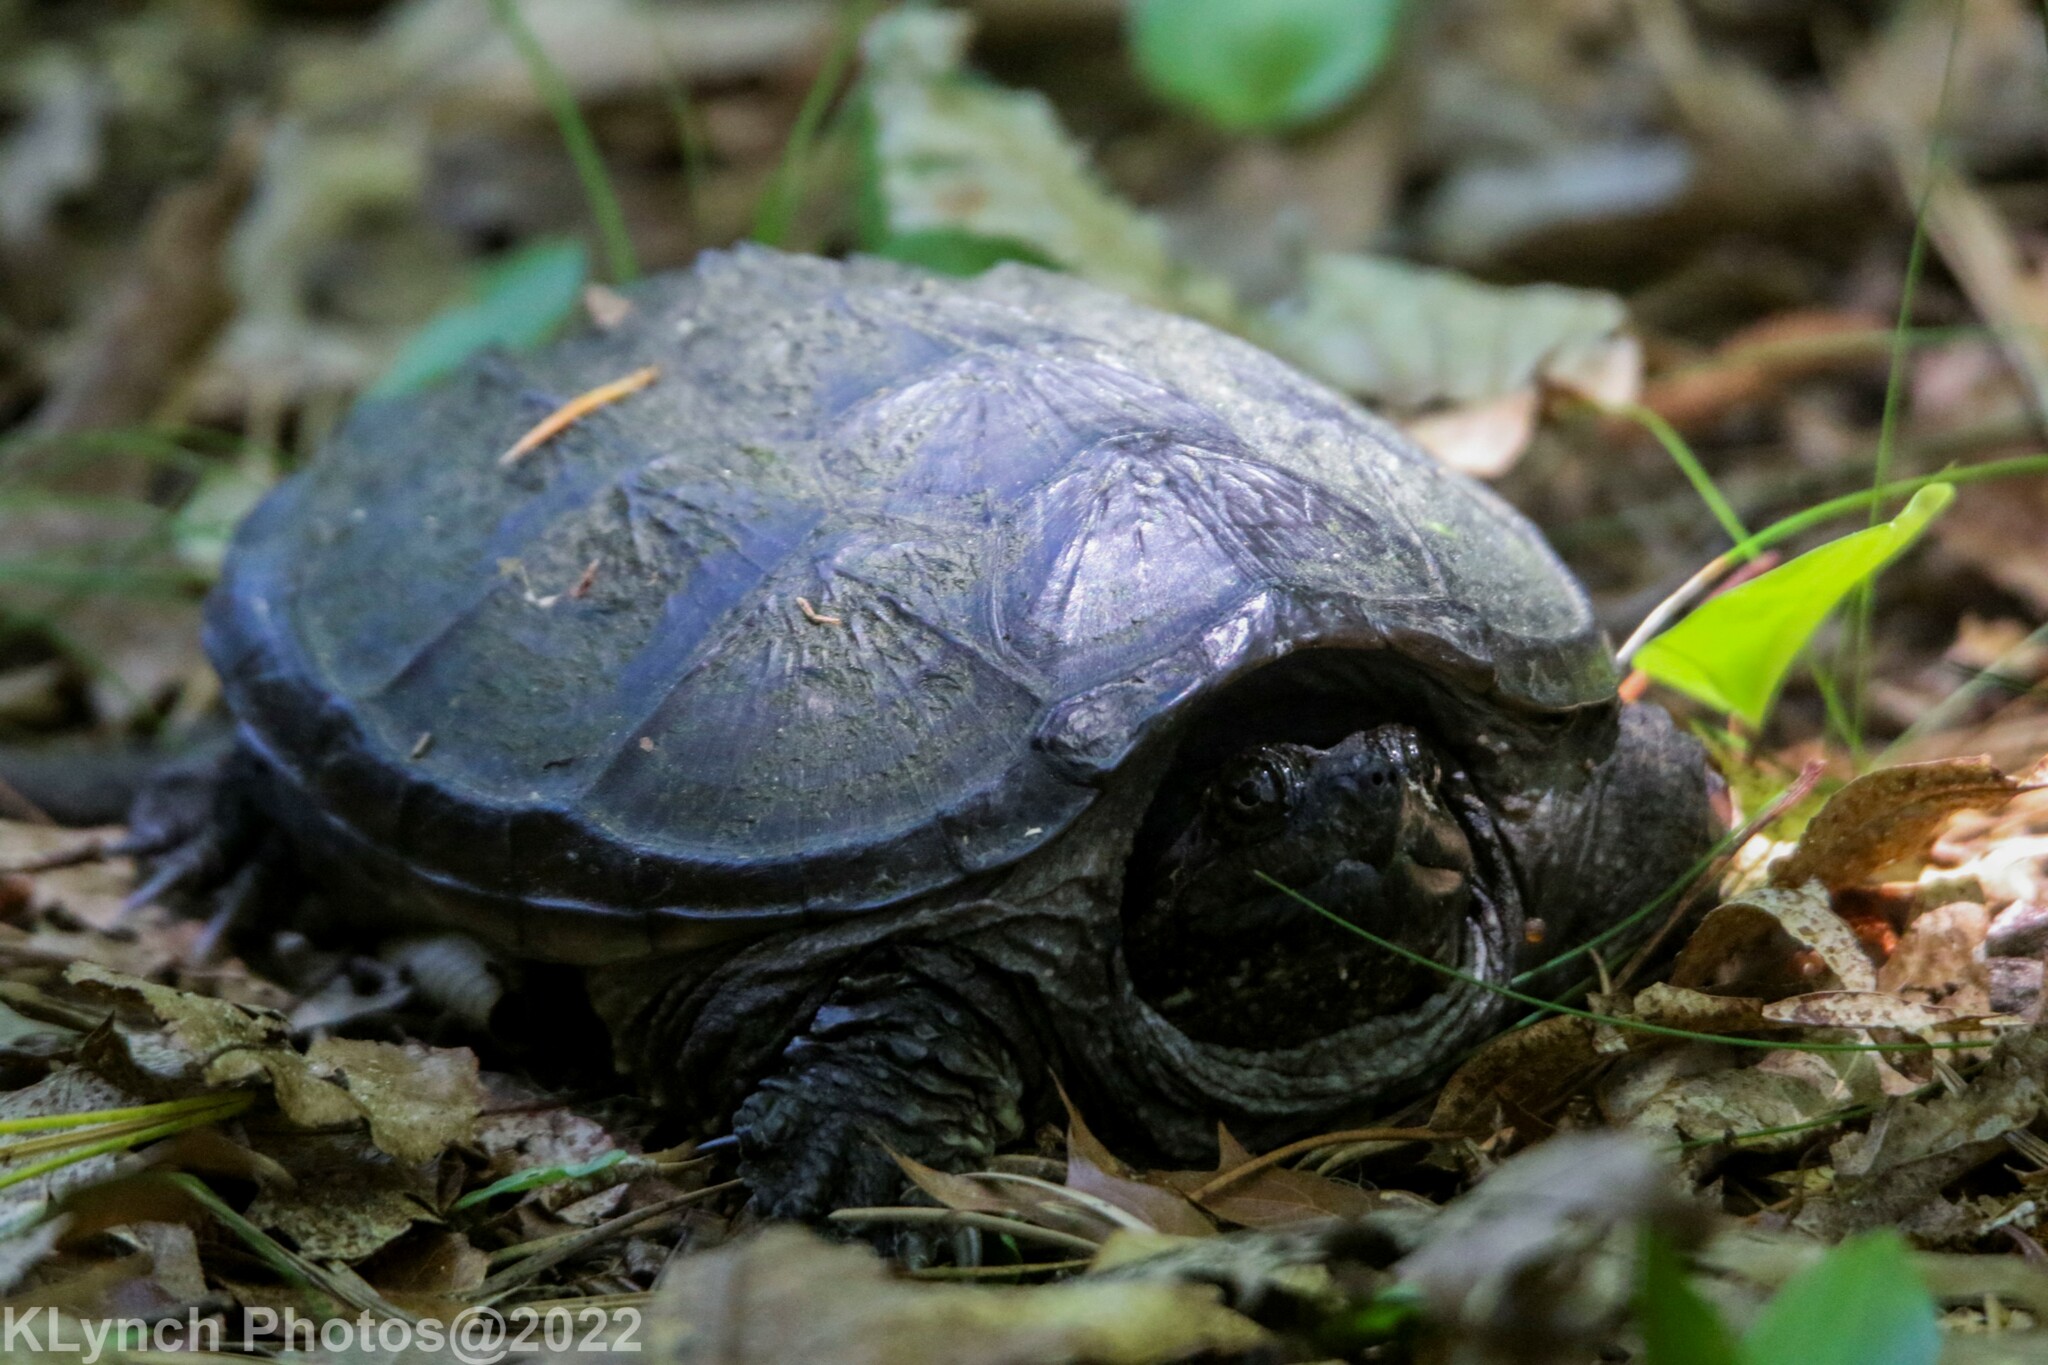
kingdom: Animalia
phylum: Chordata
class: Testudines
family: Chelydridae
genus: Chelydra
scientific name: Chelydra serpentina
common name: Common snapping turtle
